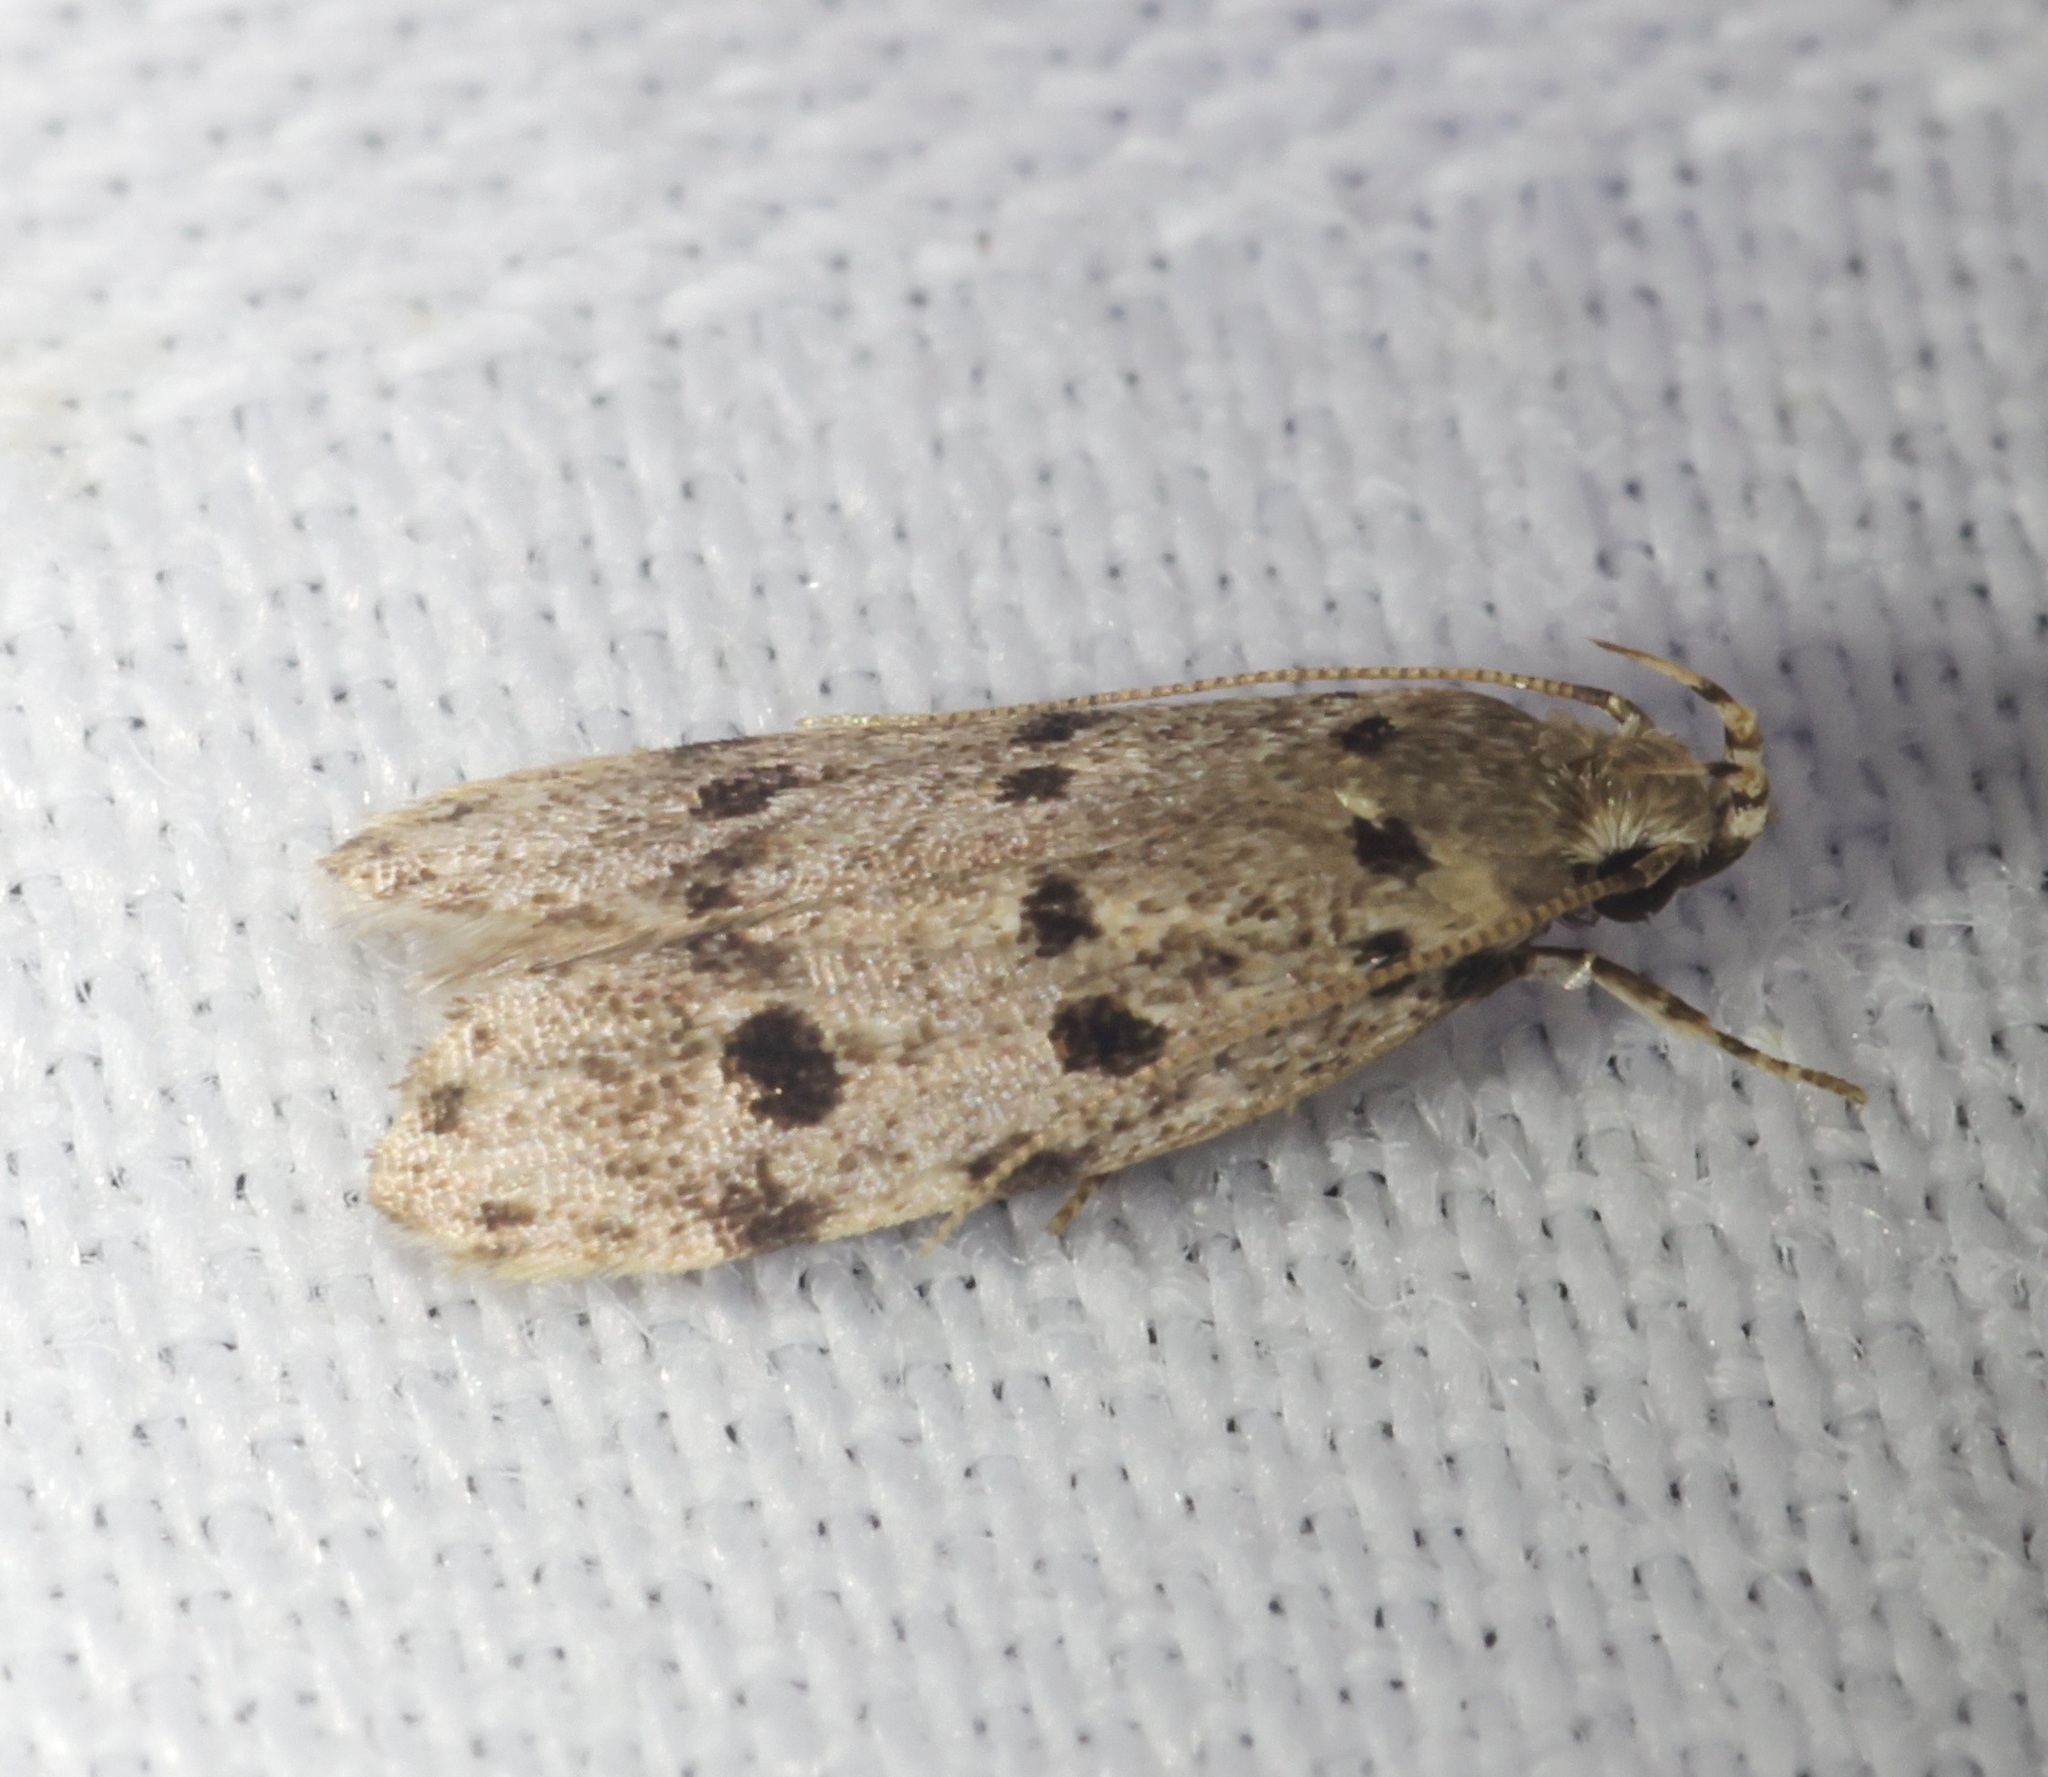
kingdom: Animalia
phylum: Arthropoda
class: Insecta
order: Lepidoptera
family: Autostichidae
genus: Autosticha
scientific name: Autosticha calceata
